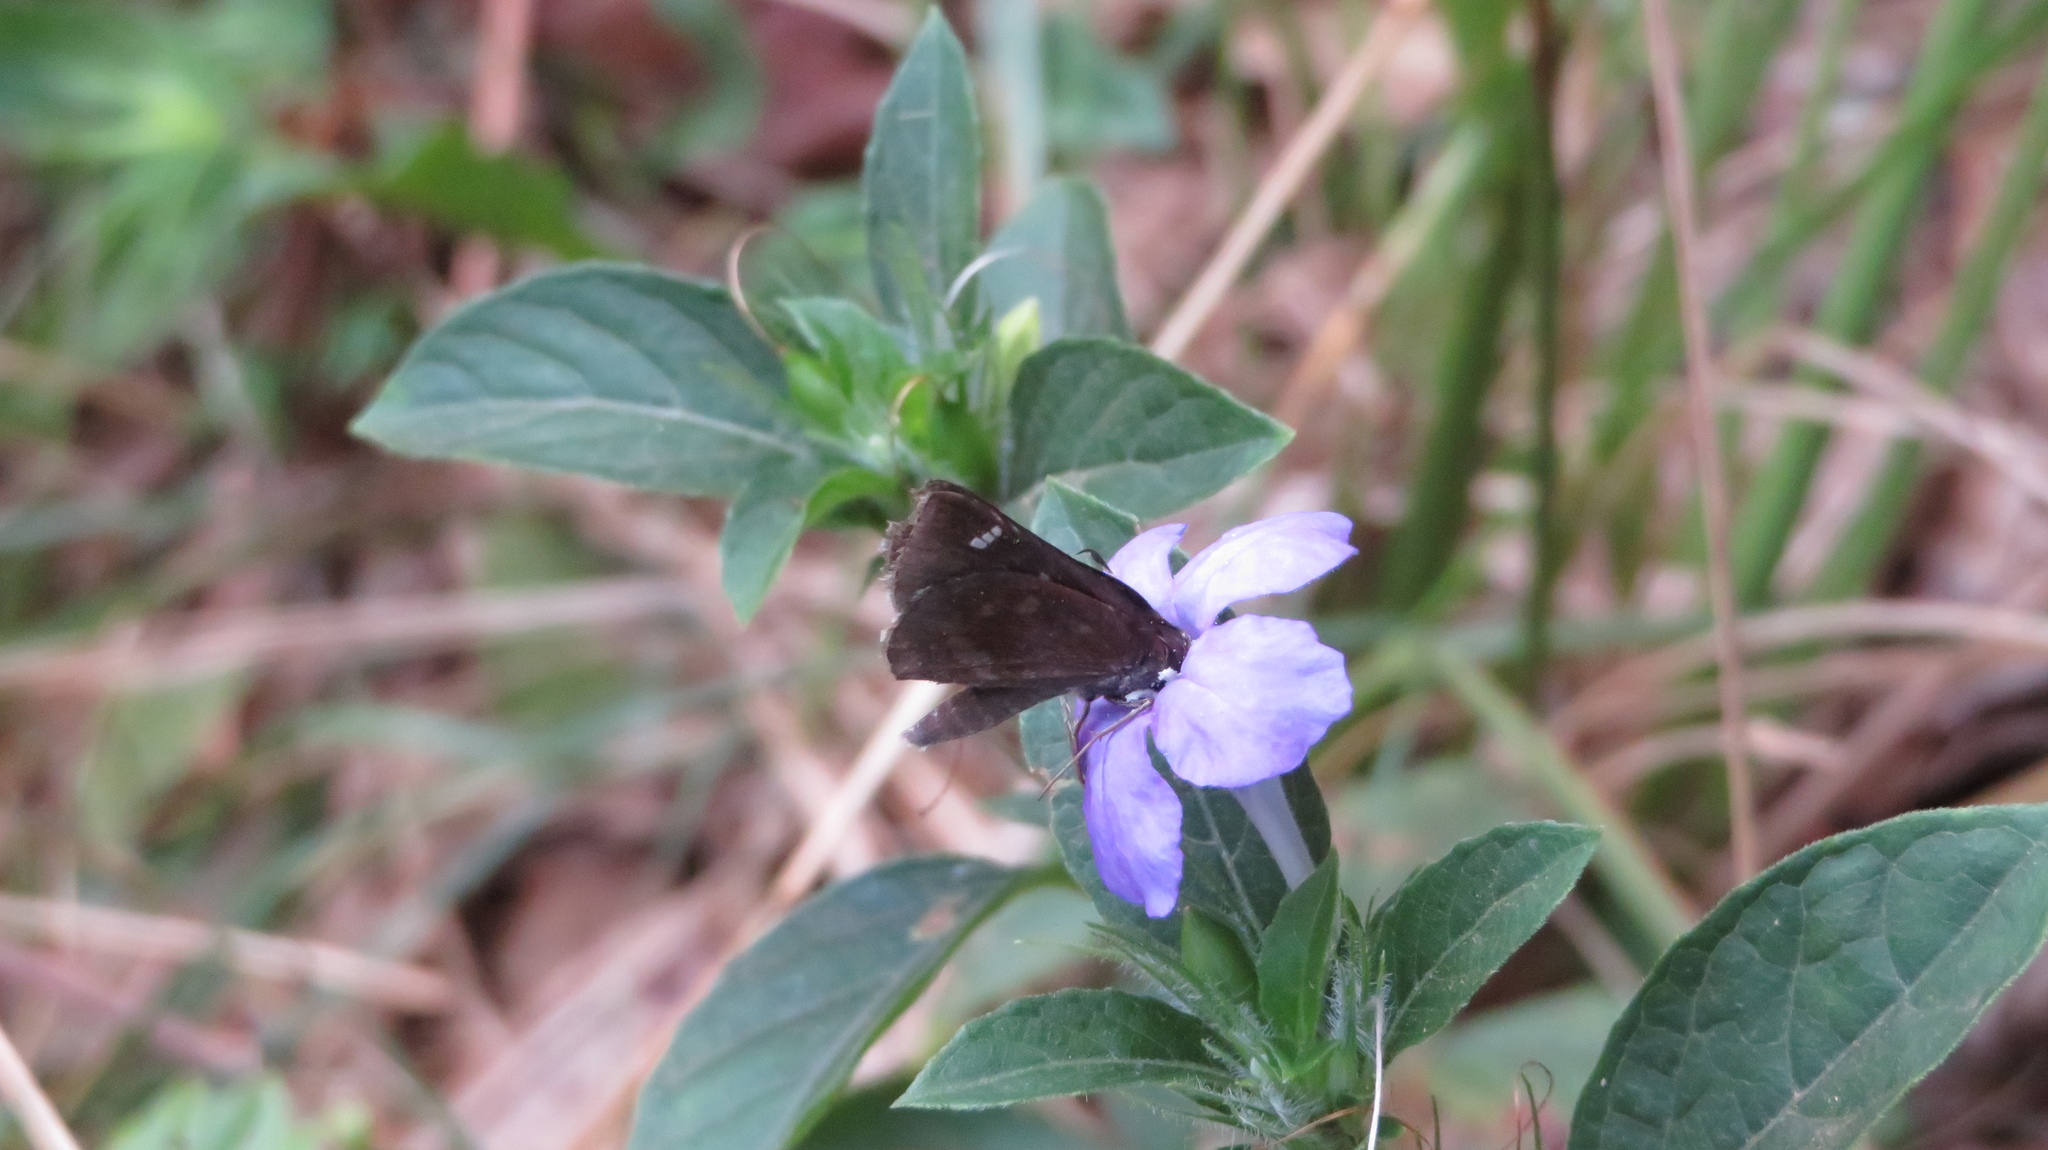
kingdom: Animalia
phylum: Arthropoda
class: Insecta
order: Lepidoptera
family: Hesperiidae
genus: Lerema
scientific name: Lerema accius
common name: Clouded skipper
